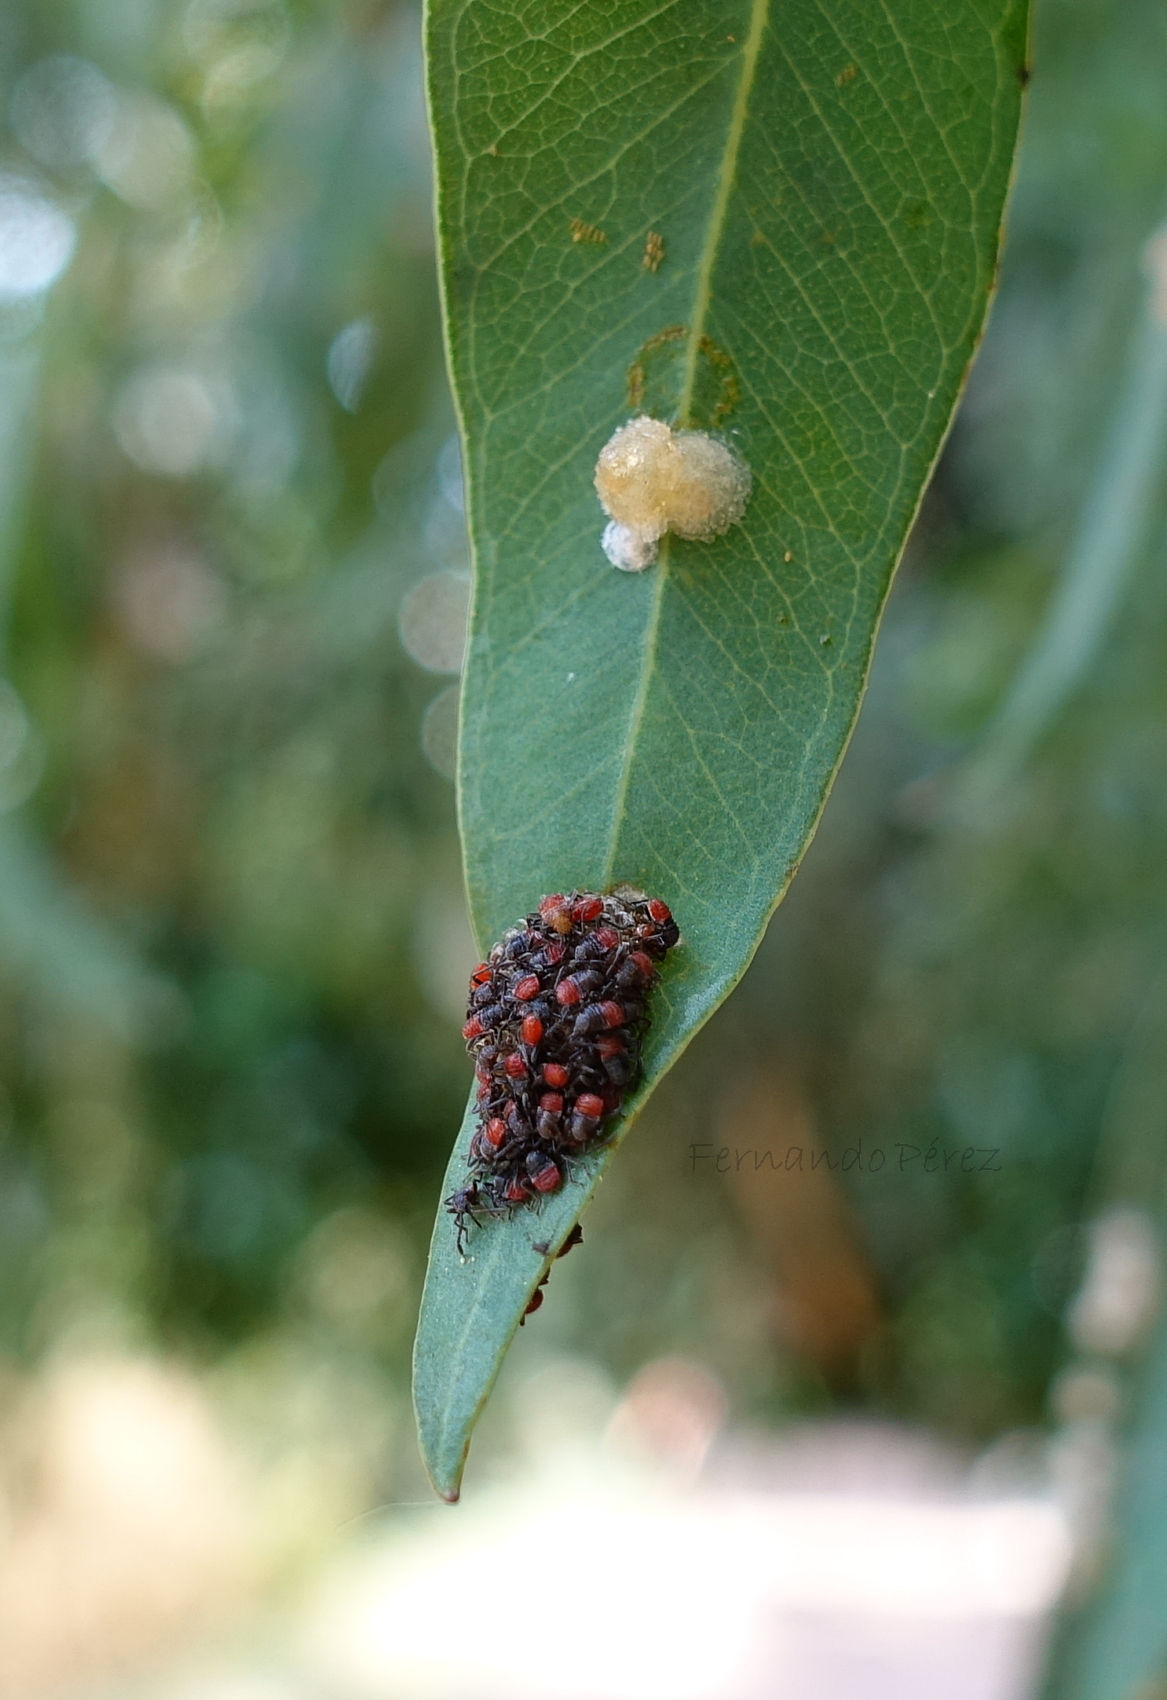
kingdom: Animalia
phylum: Arthropoda
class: Insecta
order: Hemiptera
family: Largidae
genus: Stenomacra
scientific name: Stenomacra marginella
